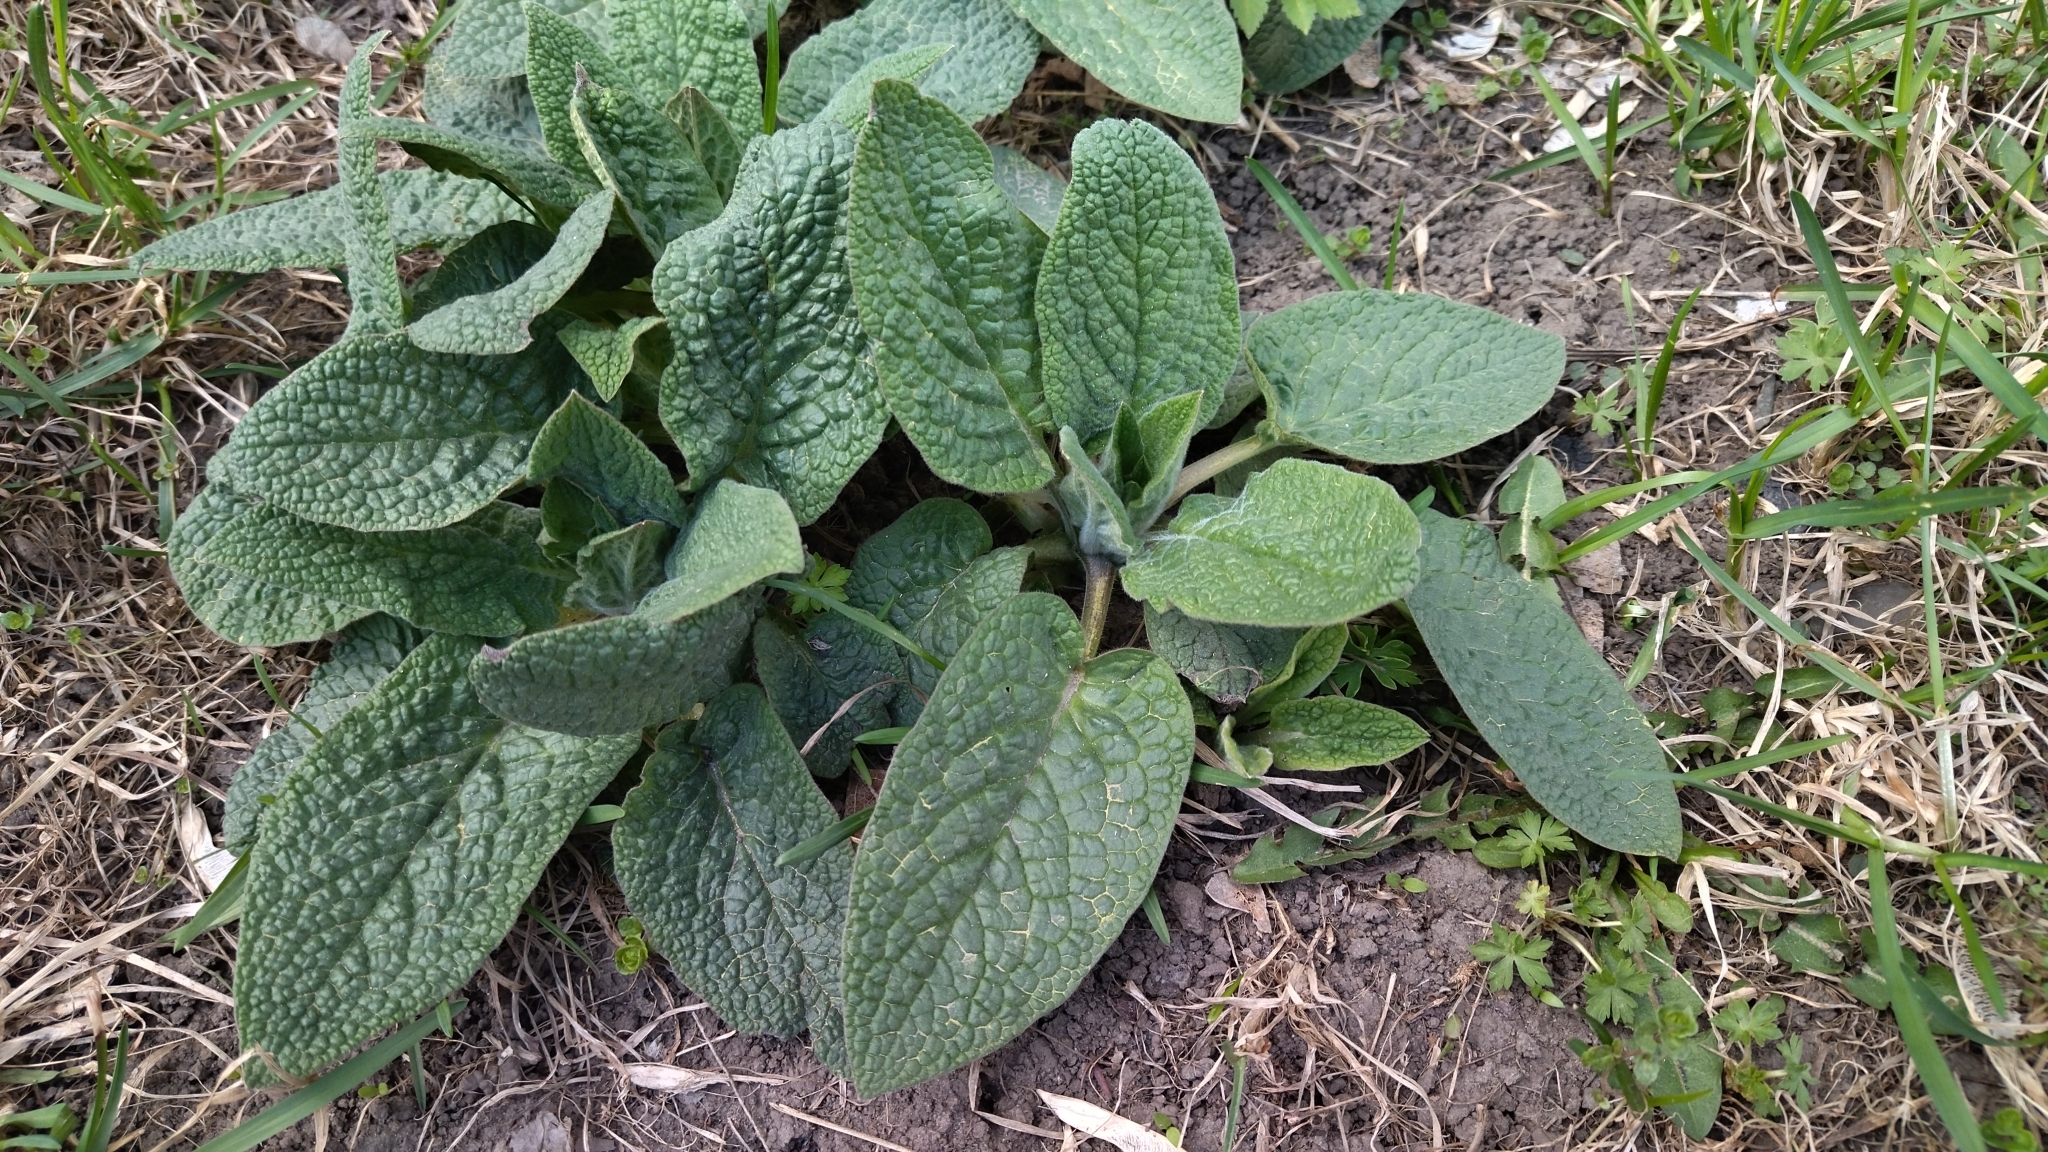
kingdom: Plantae
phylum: Tracheophyta
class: Magnoliopsida
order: Boraginales
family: Boraginaceae
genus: Symphytum
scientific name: Symphytum caucasicum
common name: Caucasian comfrey
